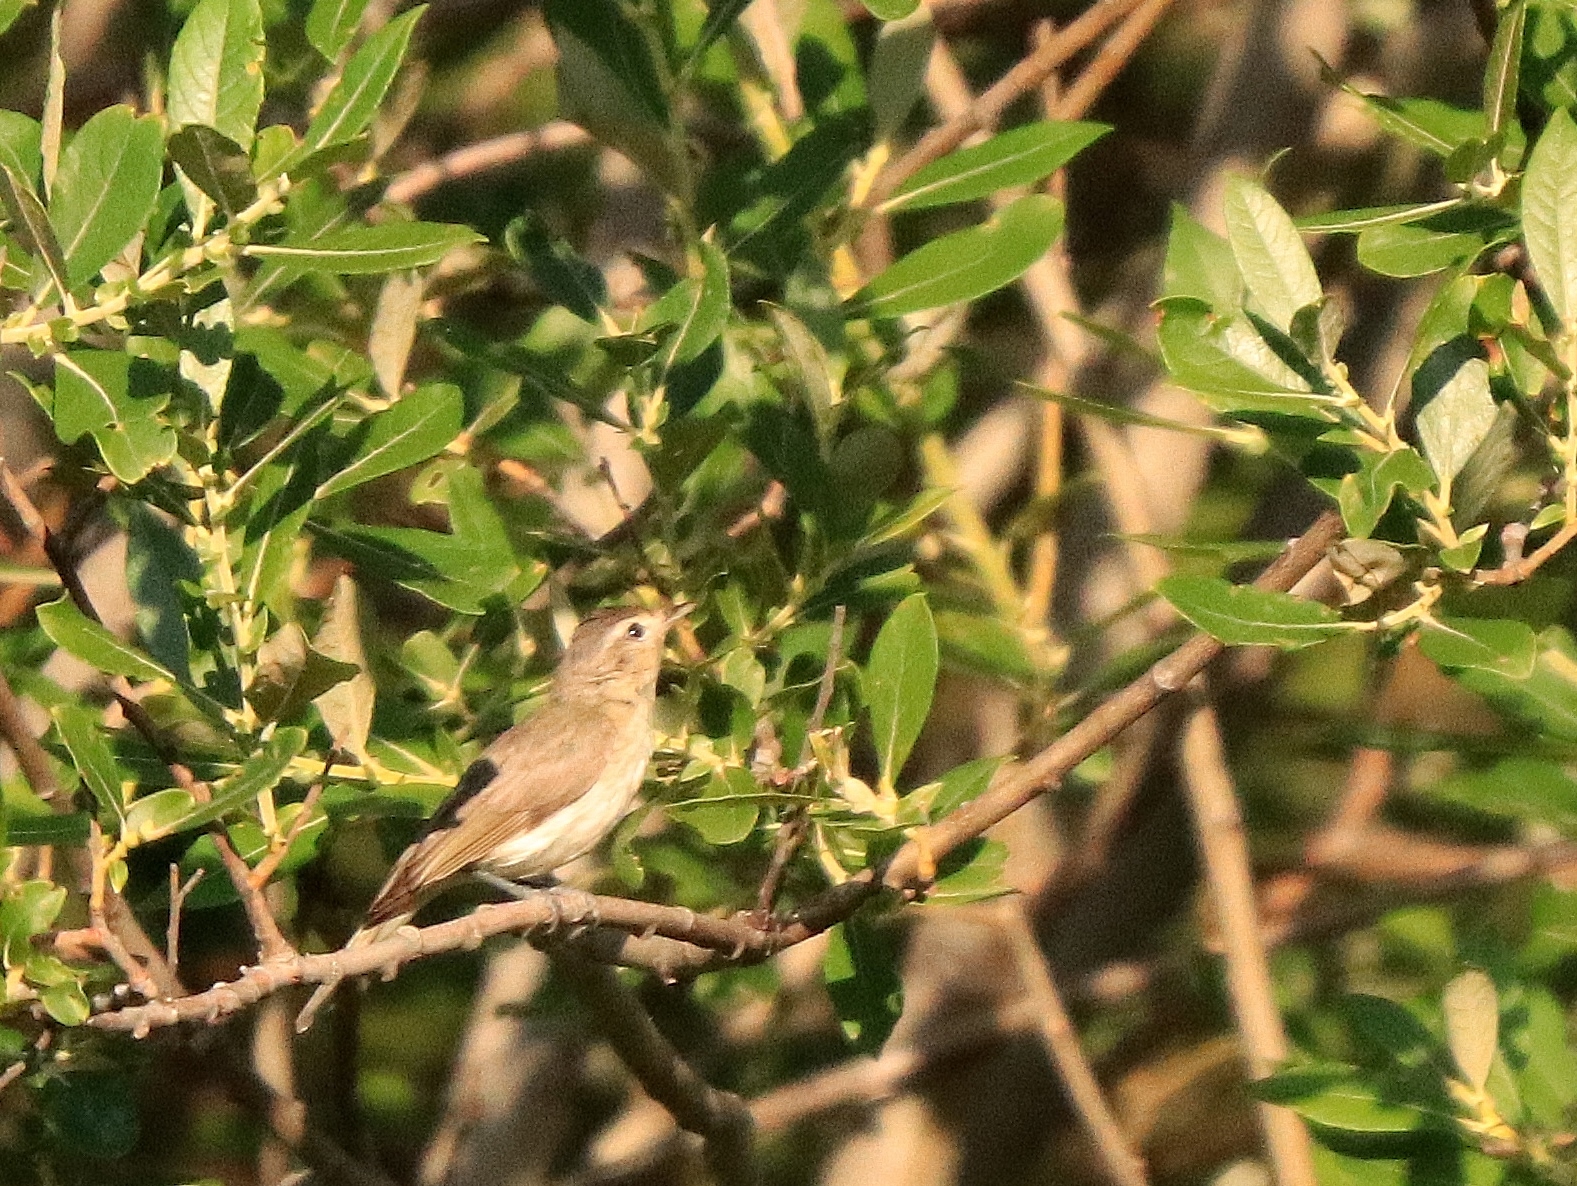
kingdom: Animalia
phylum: Chordata
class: Aves
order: Passeriformes
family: Vireonidae
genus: Vireo
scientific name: Vireo gilvus
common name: Warbling vireo
